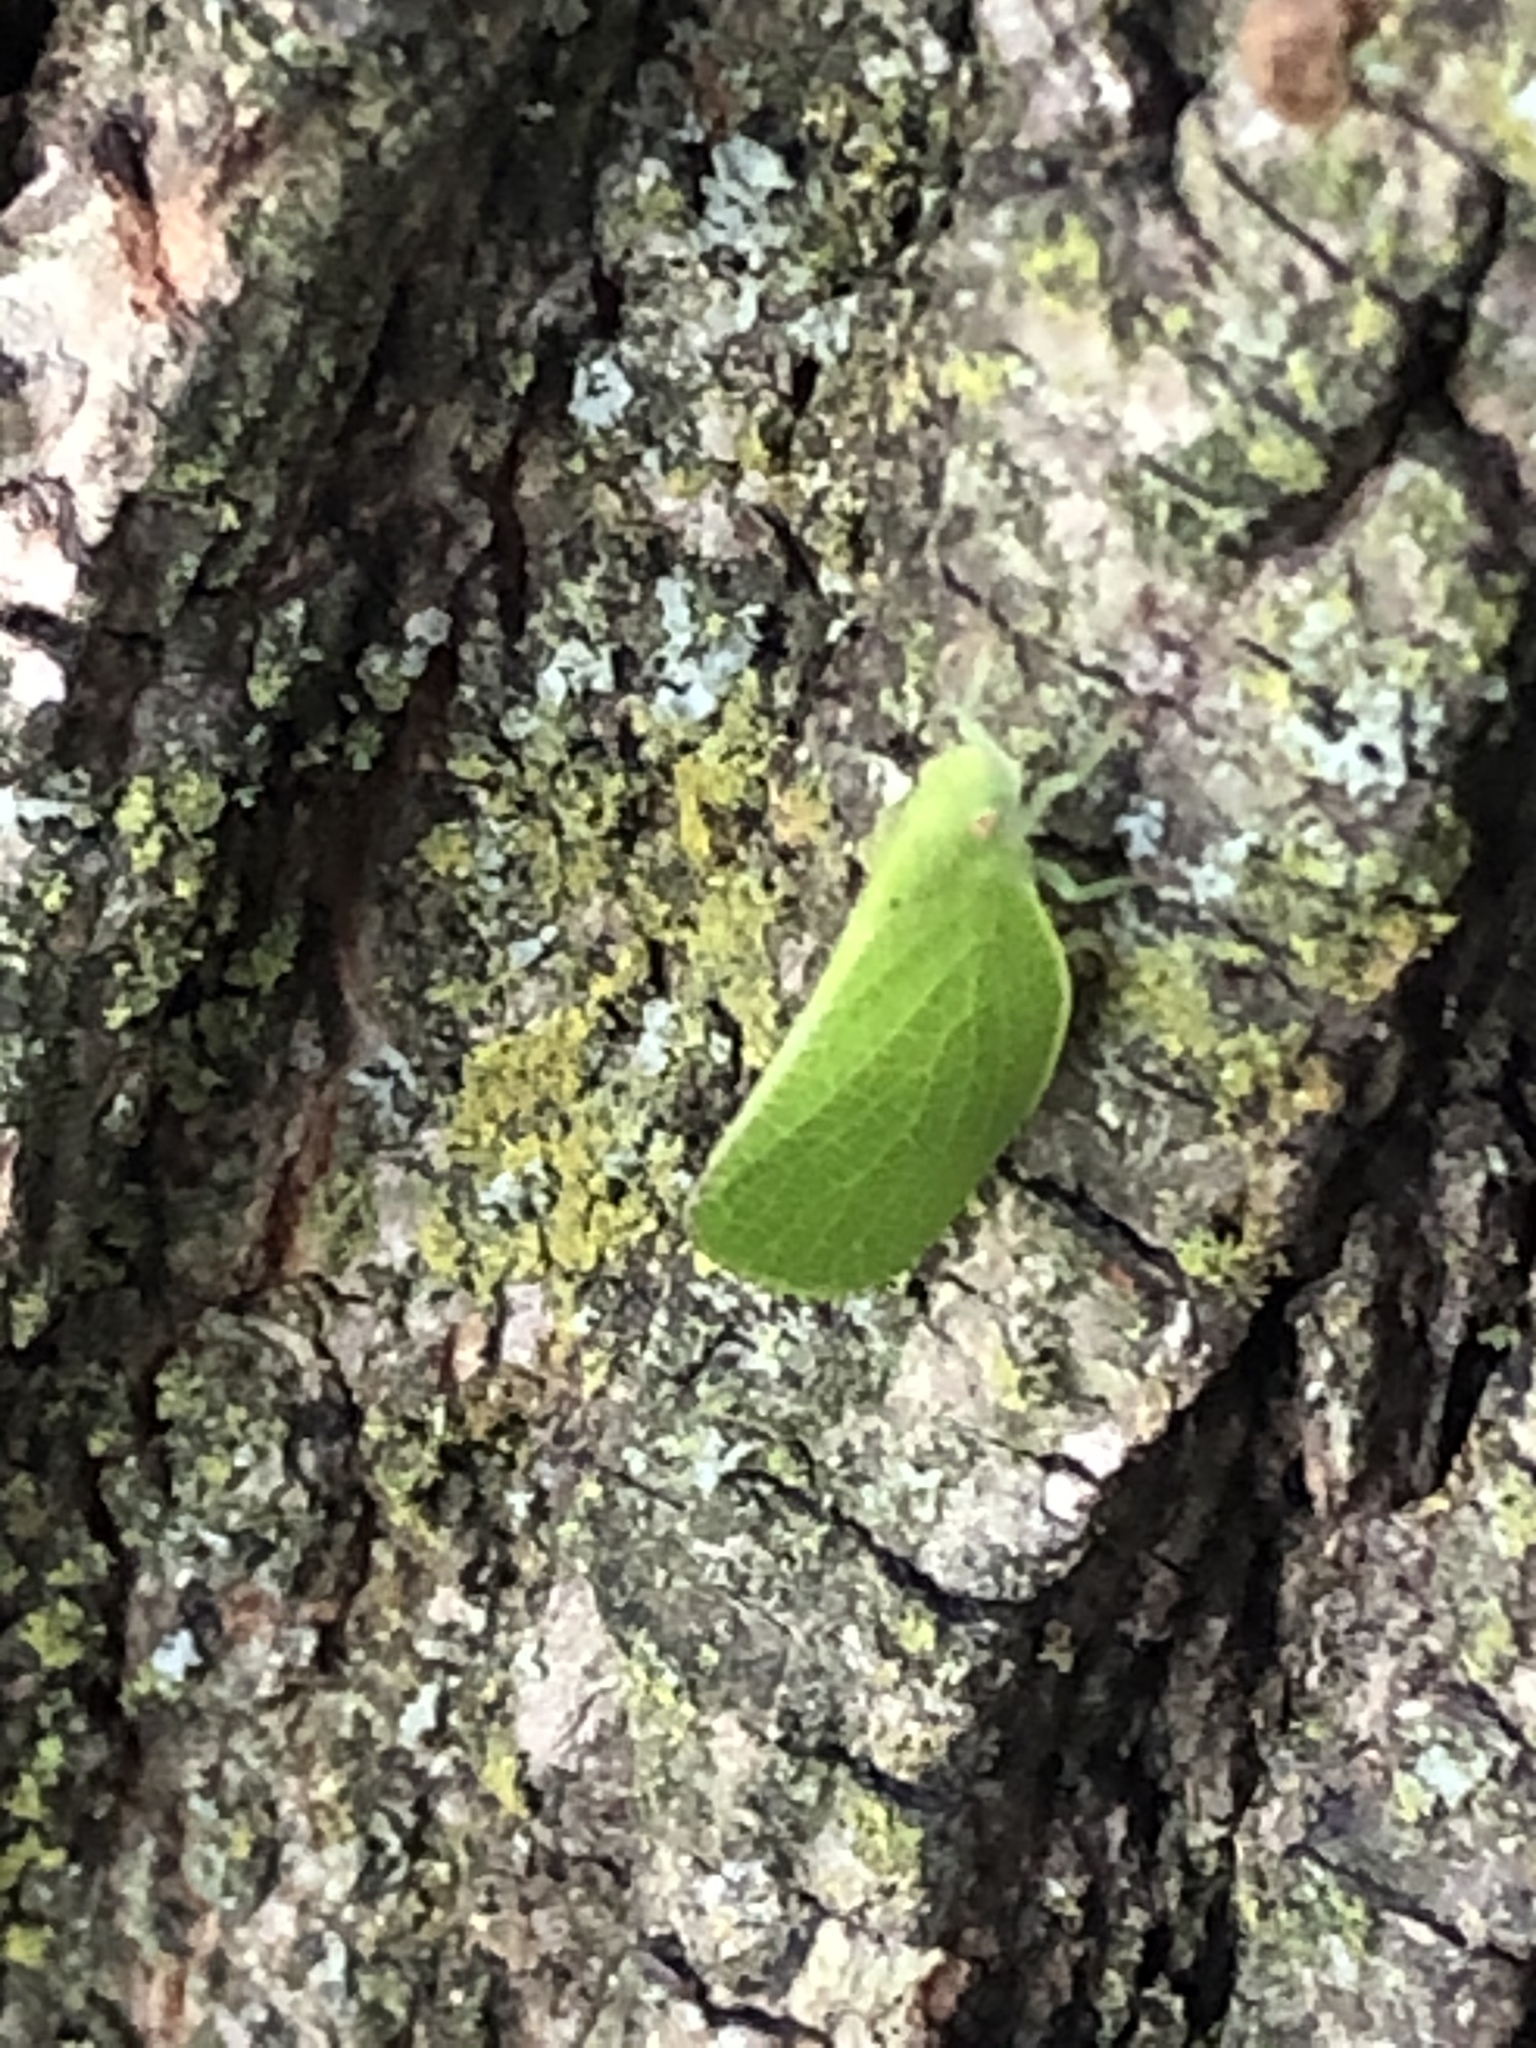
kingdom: Animalia
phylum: Arthropoda
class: Insecta
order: Hemiptera
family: Acanaloniidae
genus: Acanalonia
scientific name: Acanalonia conica
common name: Green cone-headed planthopper
